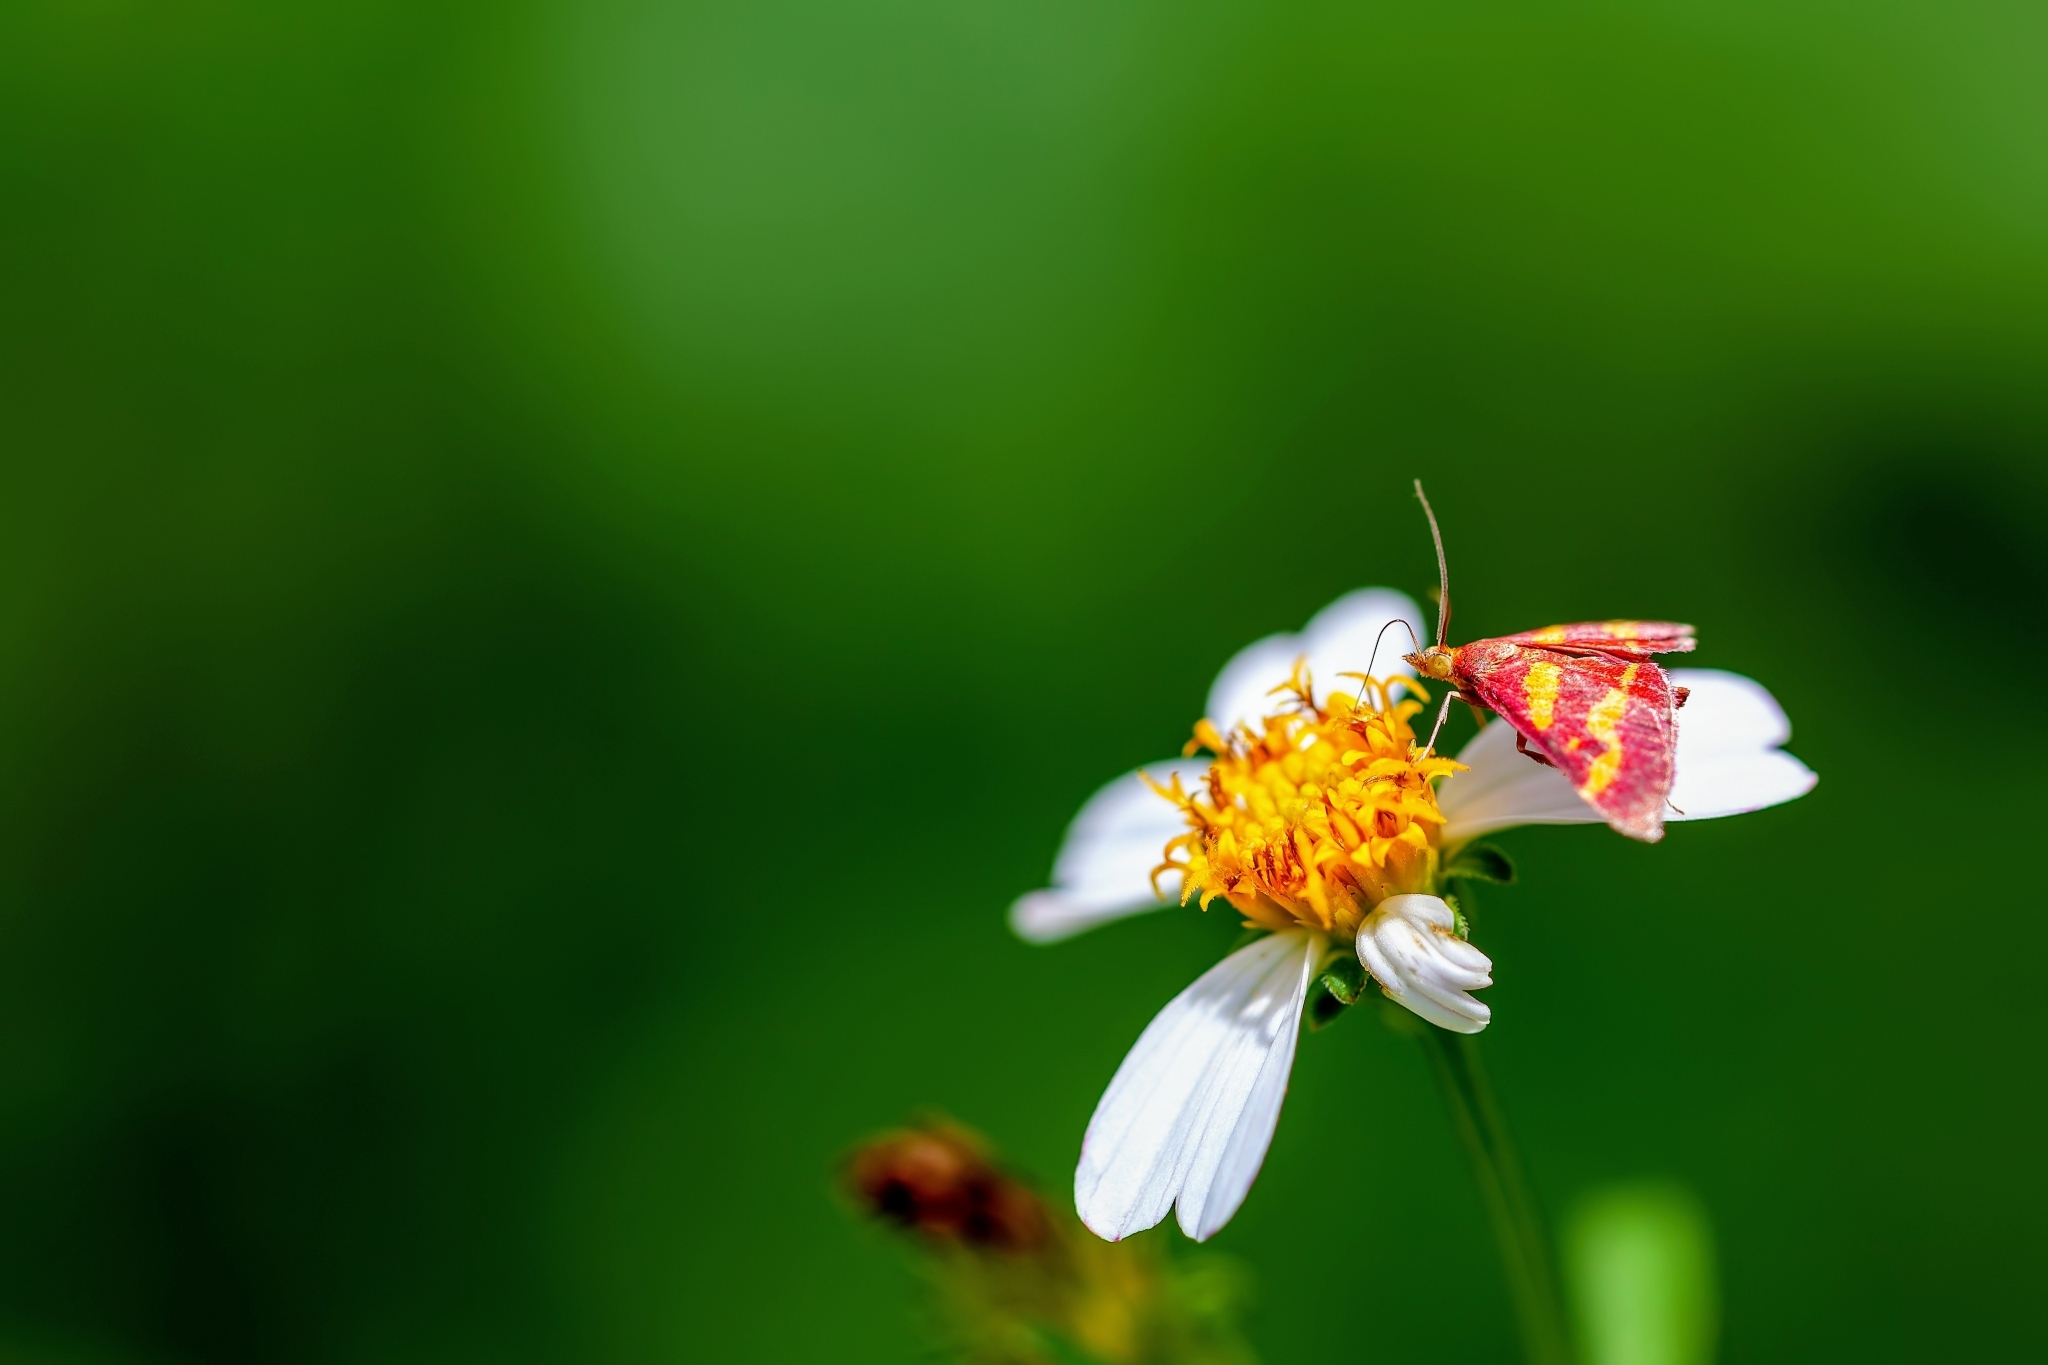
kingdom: Animalia
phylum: Arthropoda
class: Insecta
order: Lepidoptera
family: Crambidae
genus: Pyrausta
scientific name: Pyrausta tyralis
